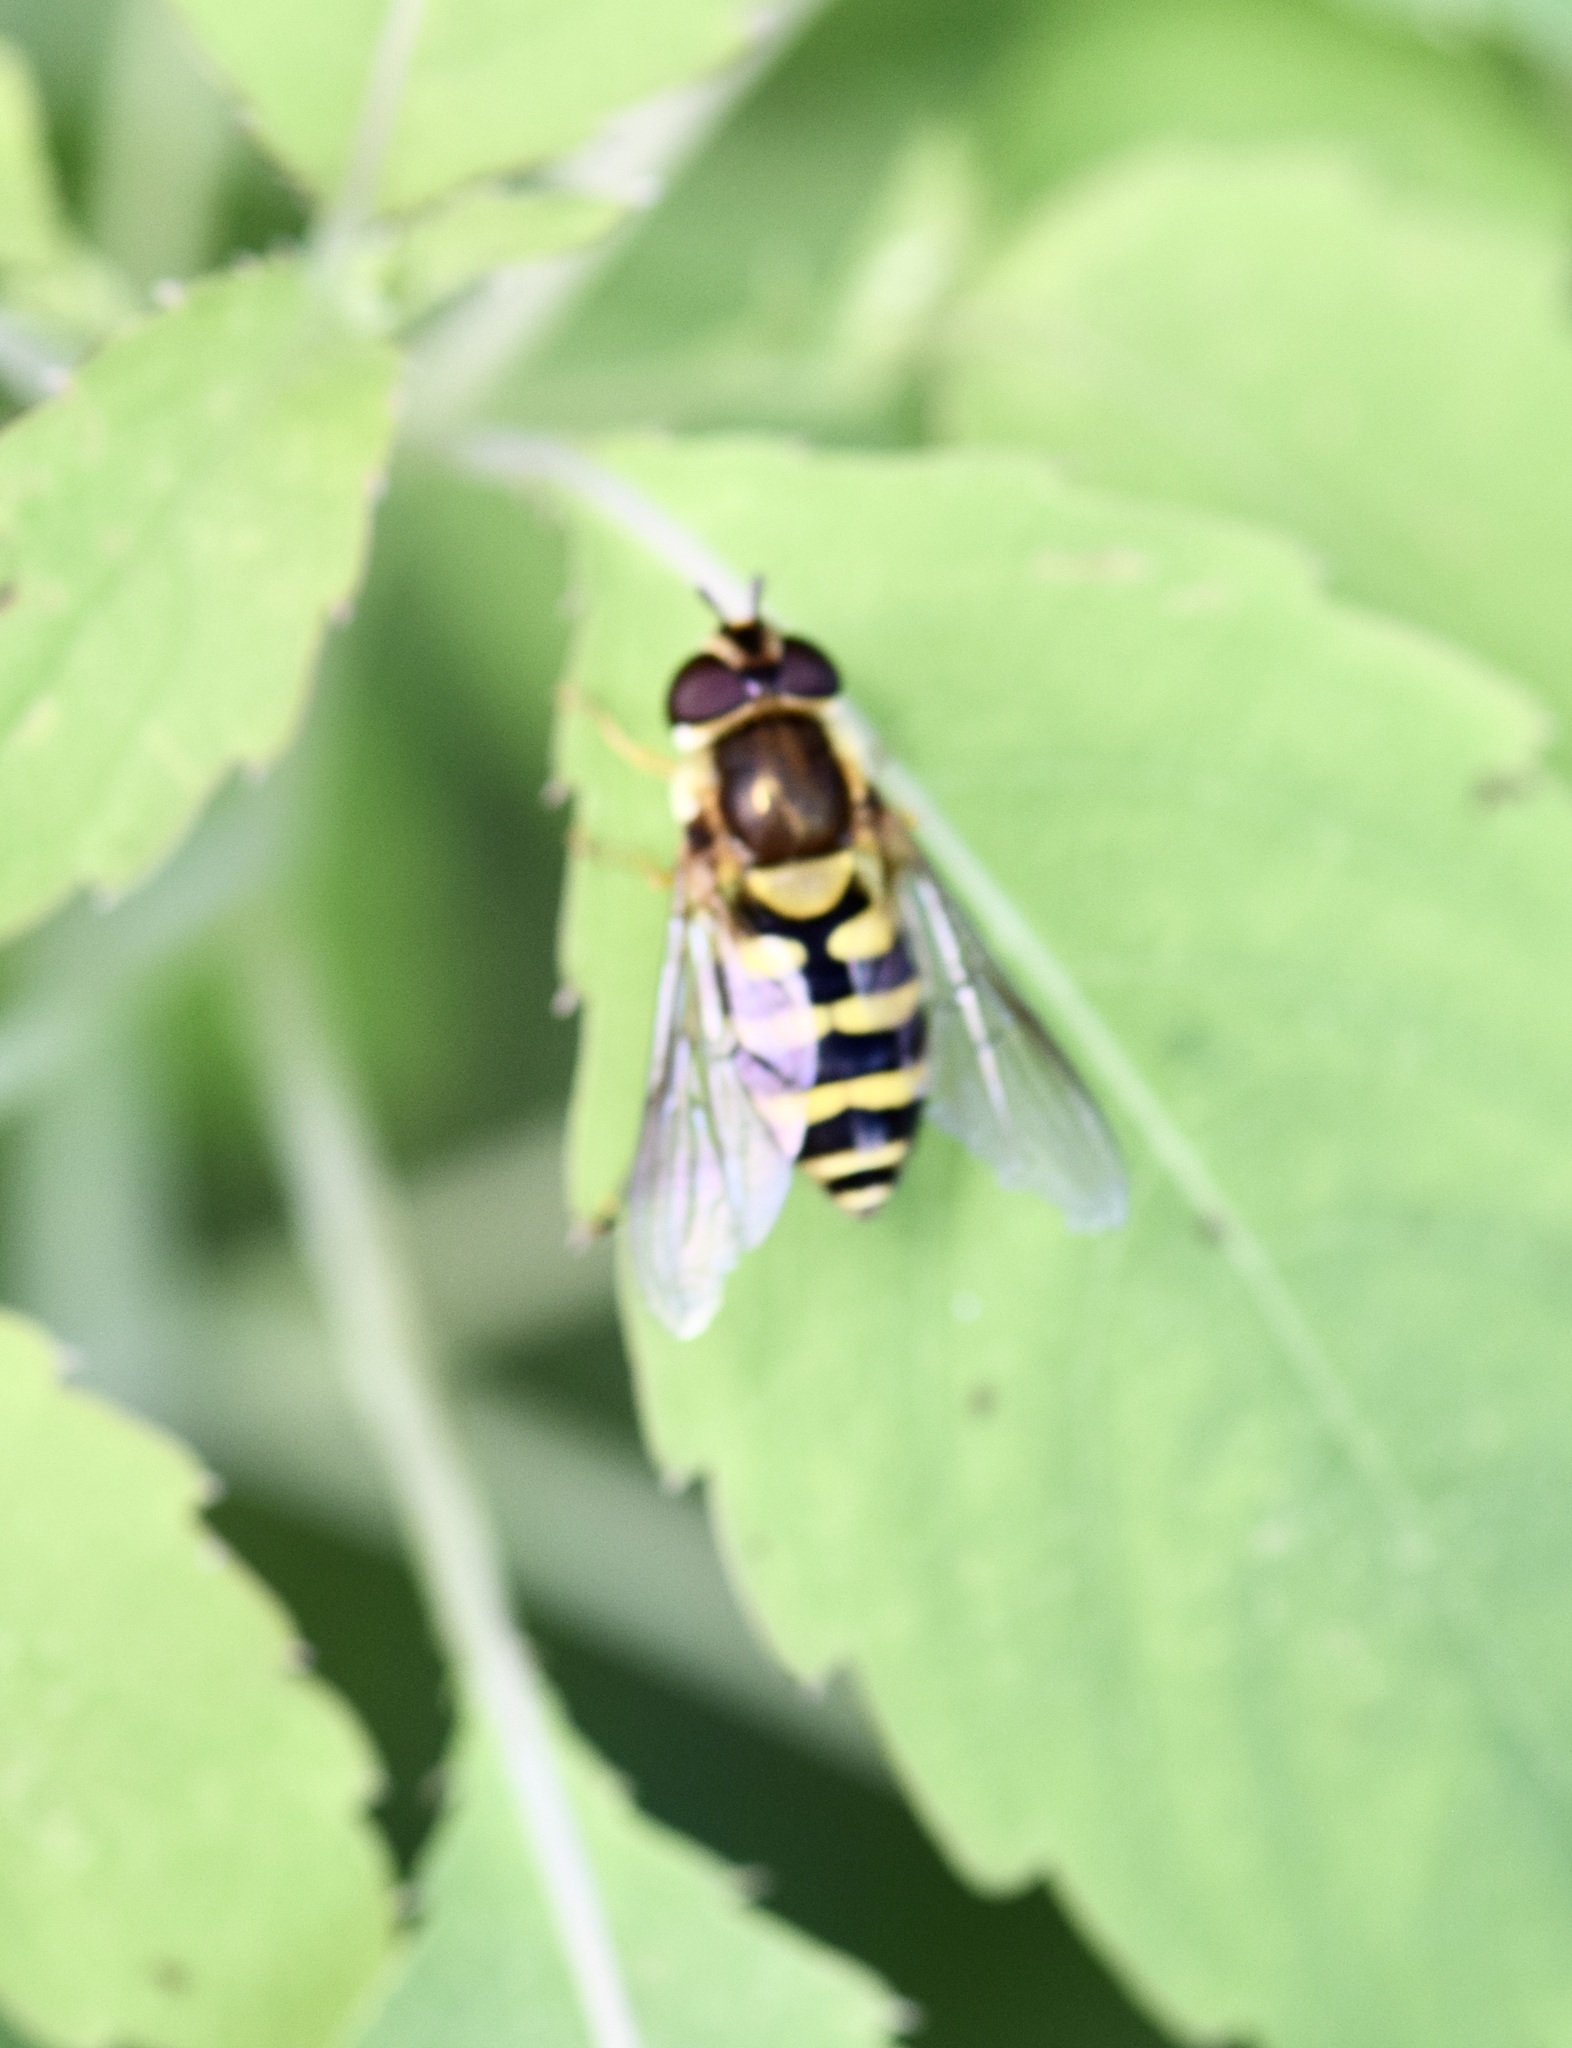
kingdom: Animalia
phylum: Arthropoda
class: Insecta
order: Diptera
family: Syrphidae
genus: Syrphus
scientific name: Syrphus
